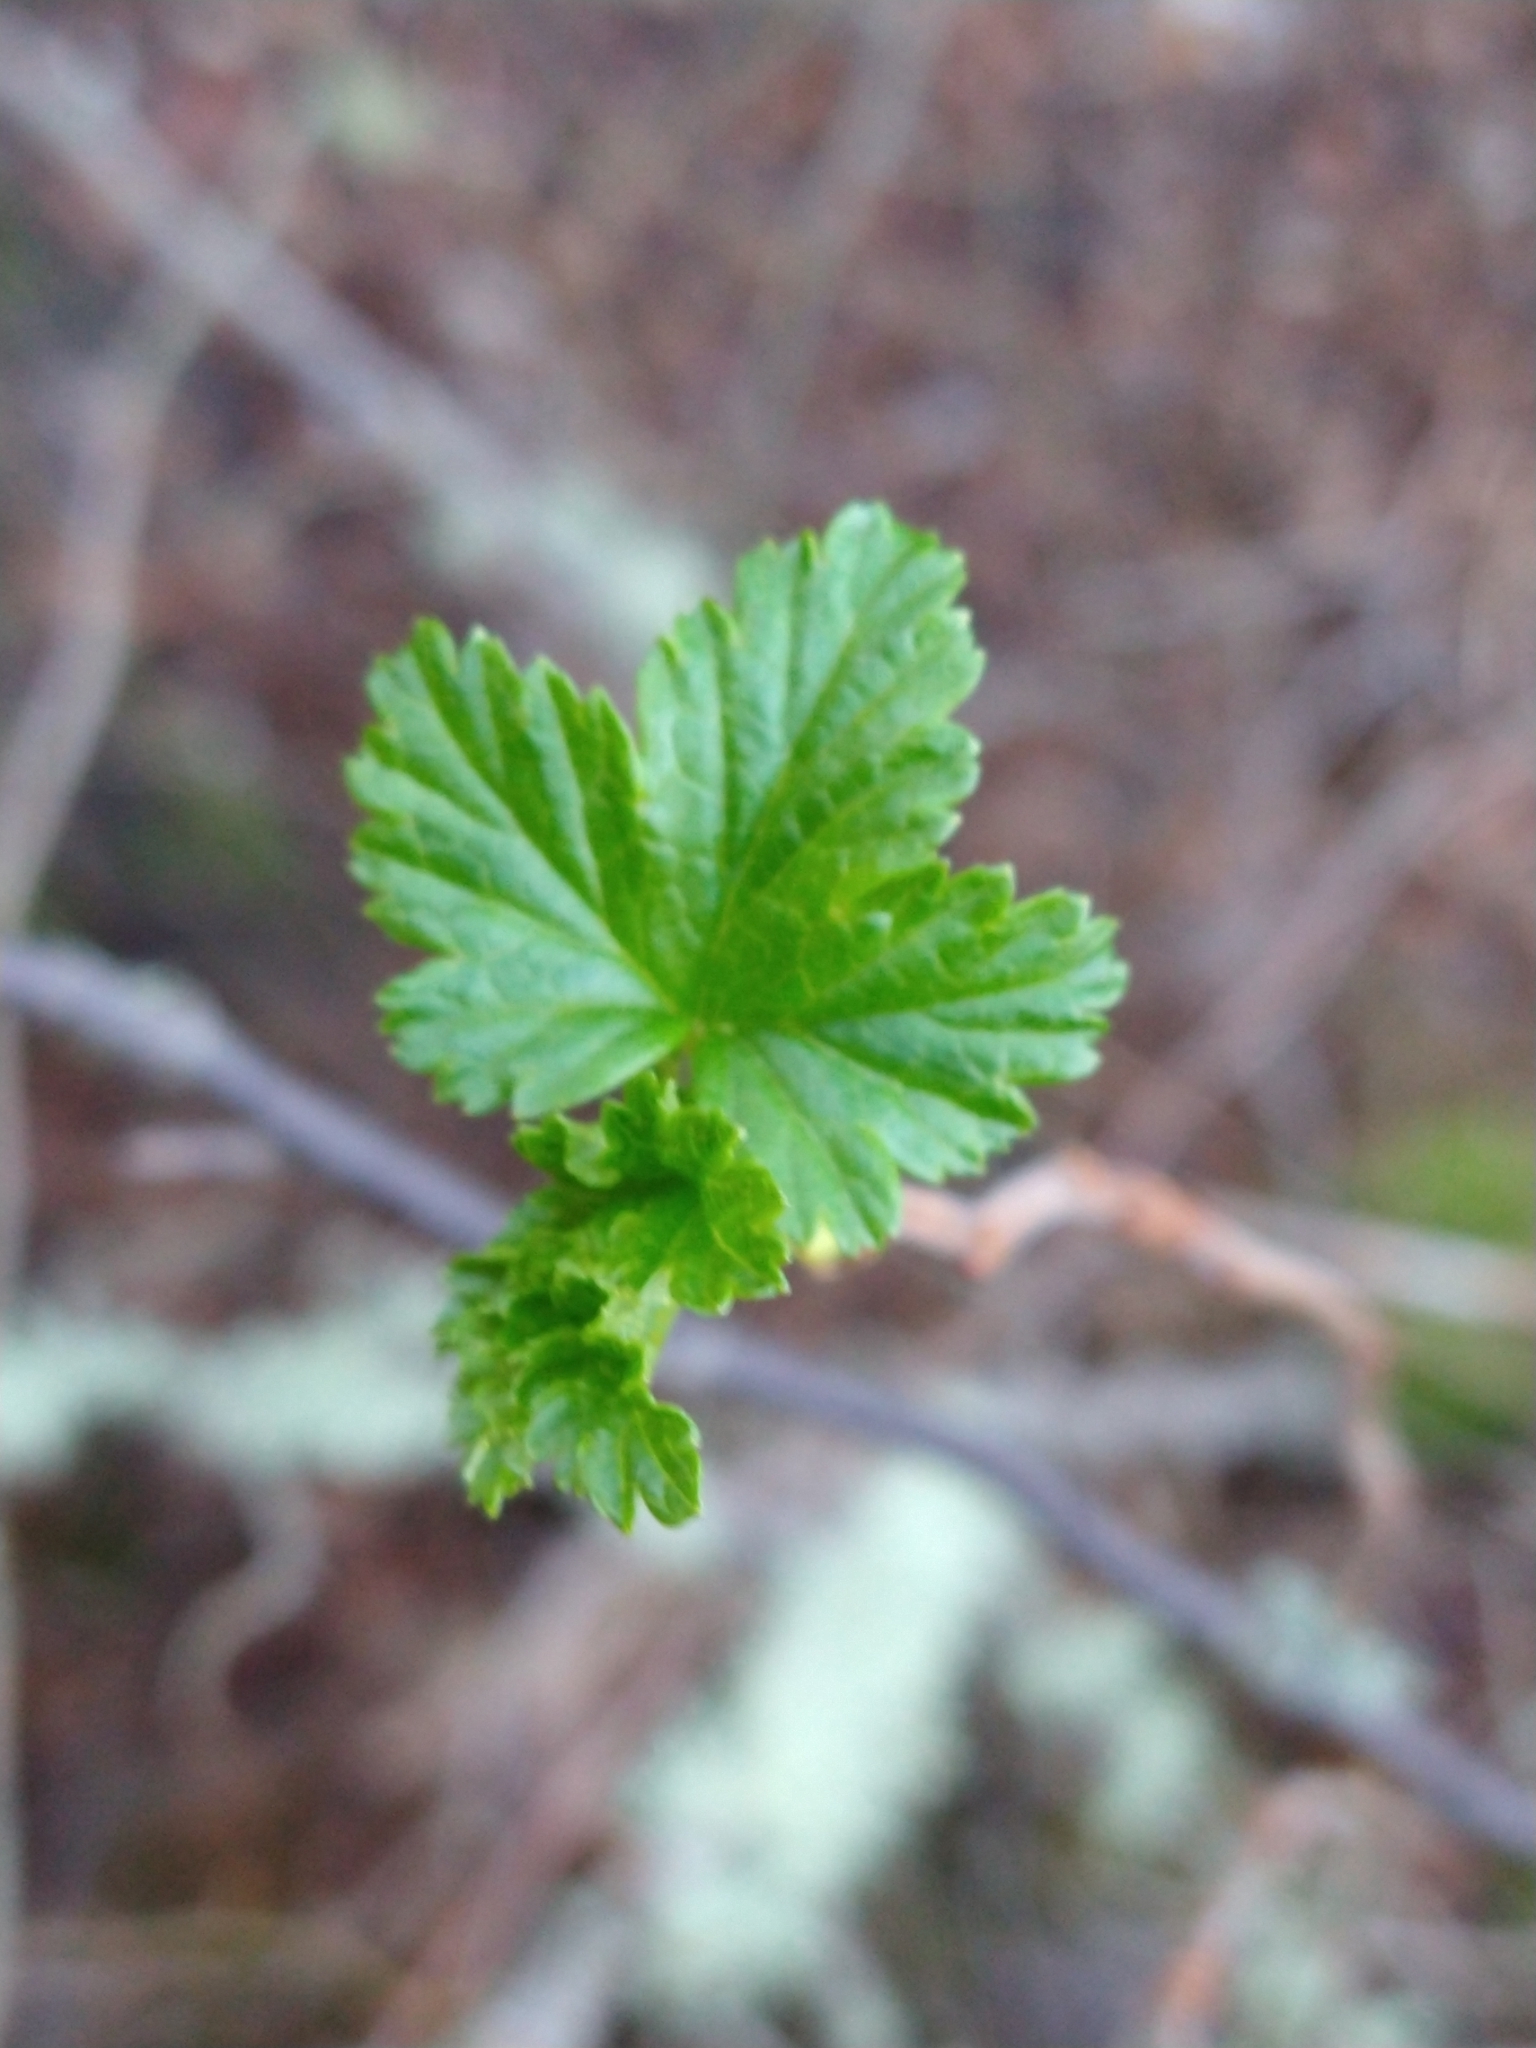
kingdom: Plantae
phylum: Tracheophyta
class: Magnoliopsida
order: Saxifragales
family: Grossulariaceae
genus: Ribes
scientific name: Ribes magellanicum
